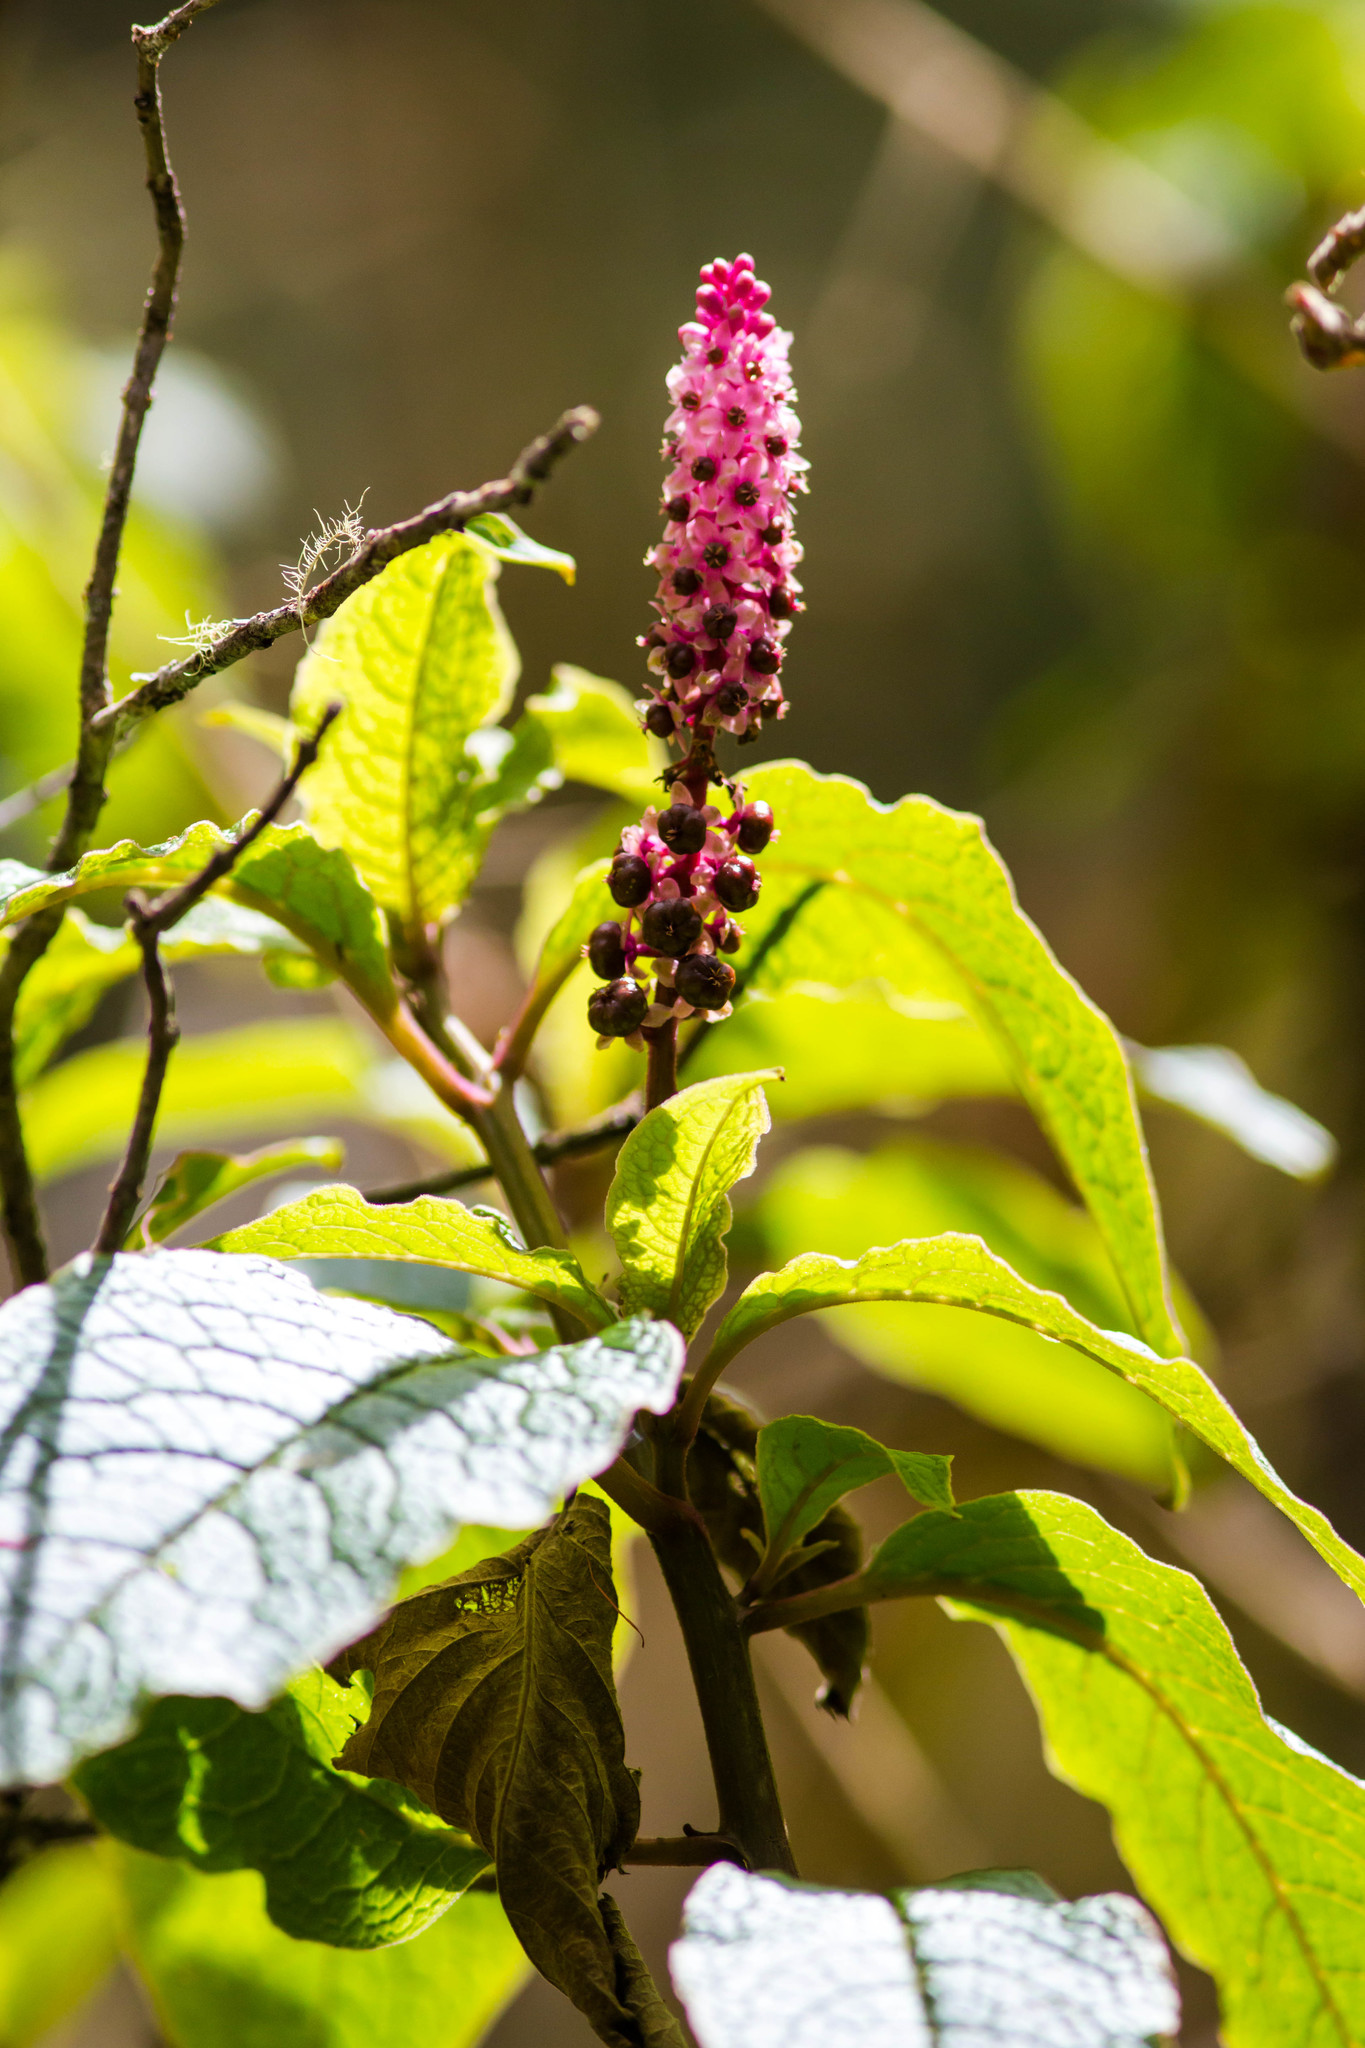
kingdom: Plantae
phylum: Tracheophyta
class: Magnoliopsida
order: Caryophyllales
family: Phytolaccaceae
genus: Phytolacca
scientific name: Phytolacca sandwicensis
